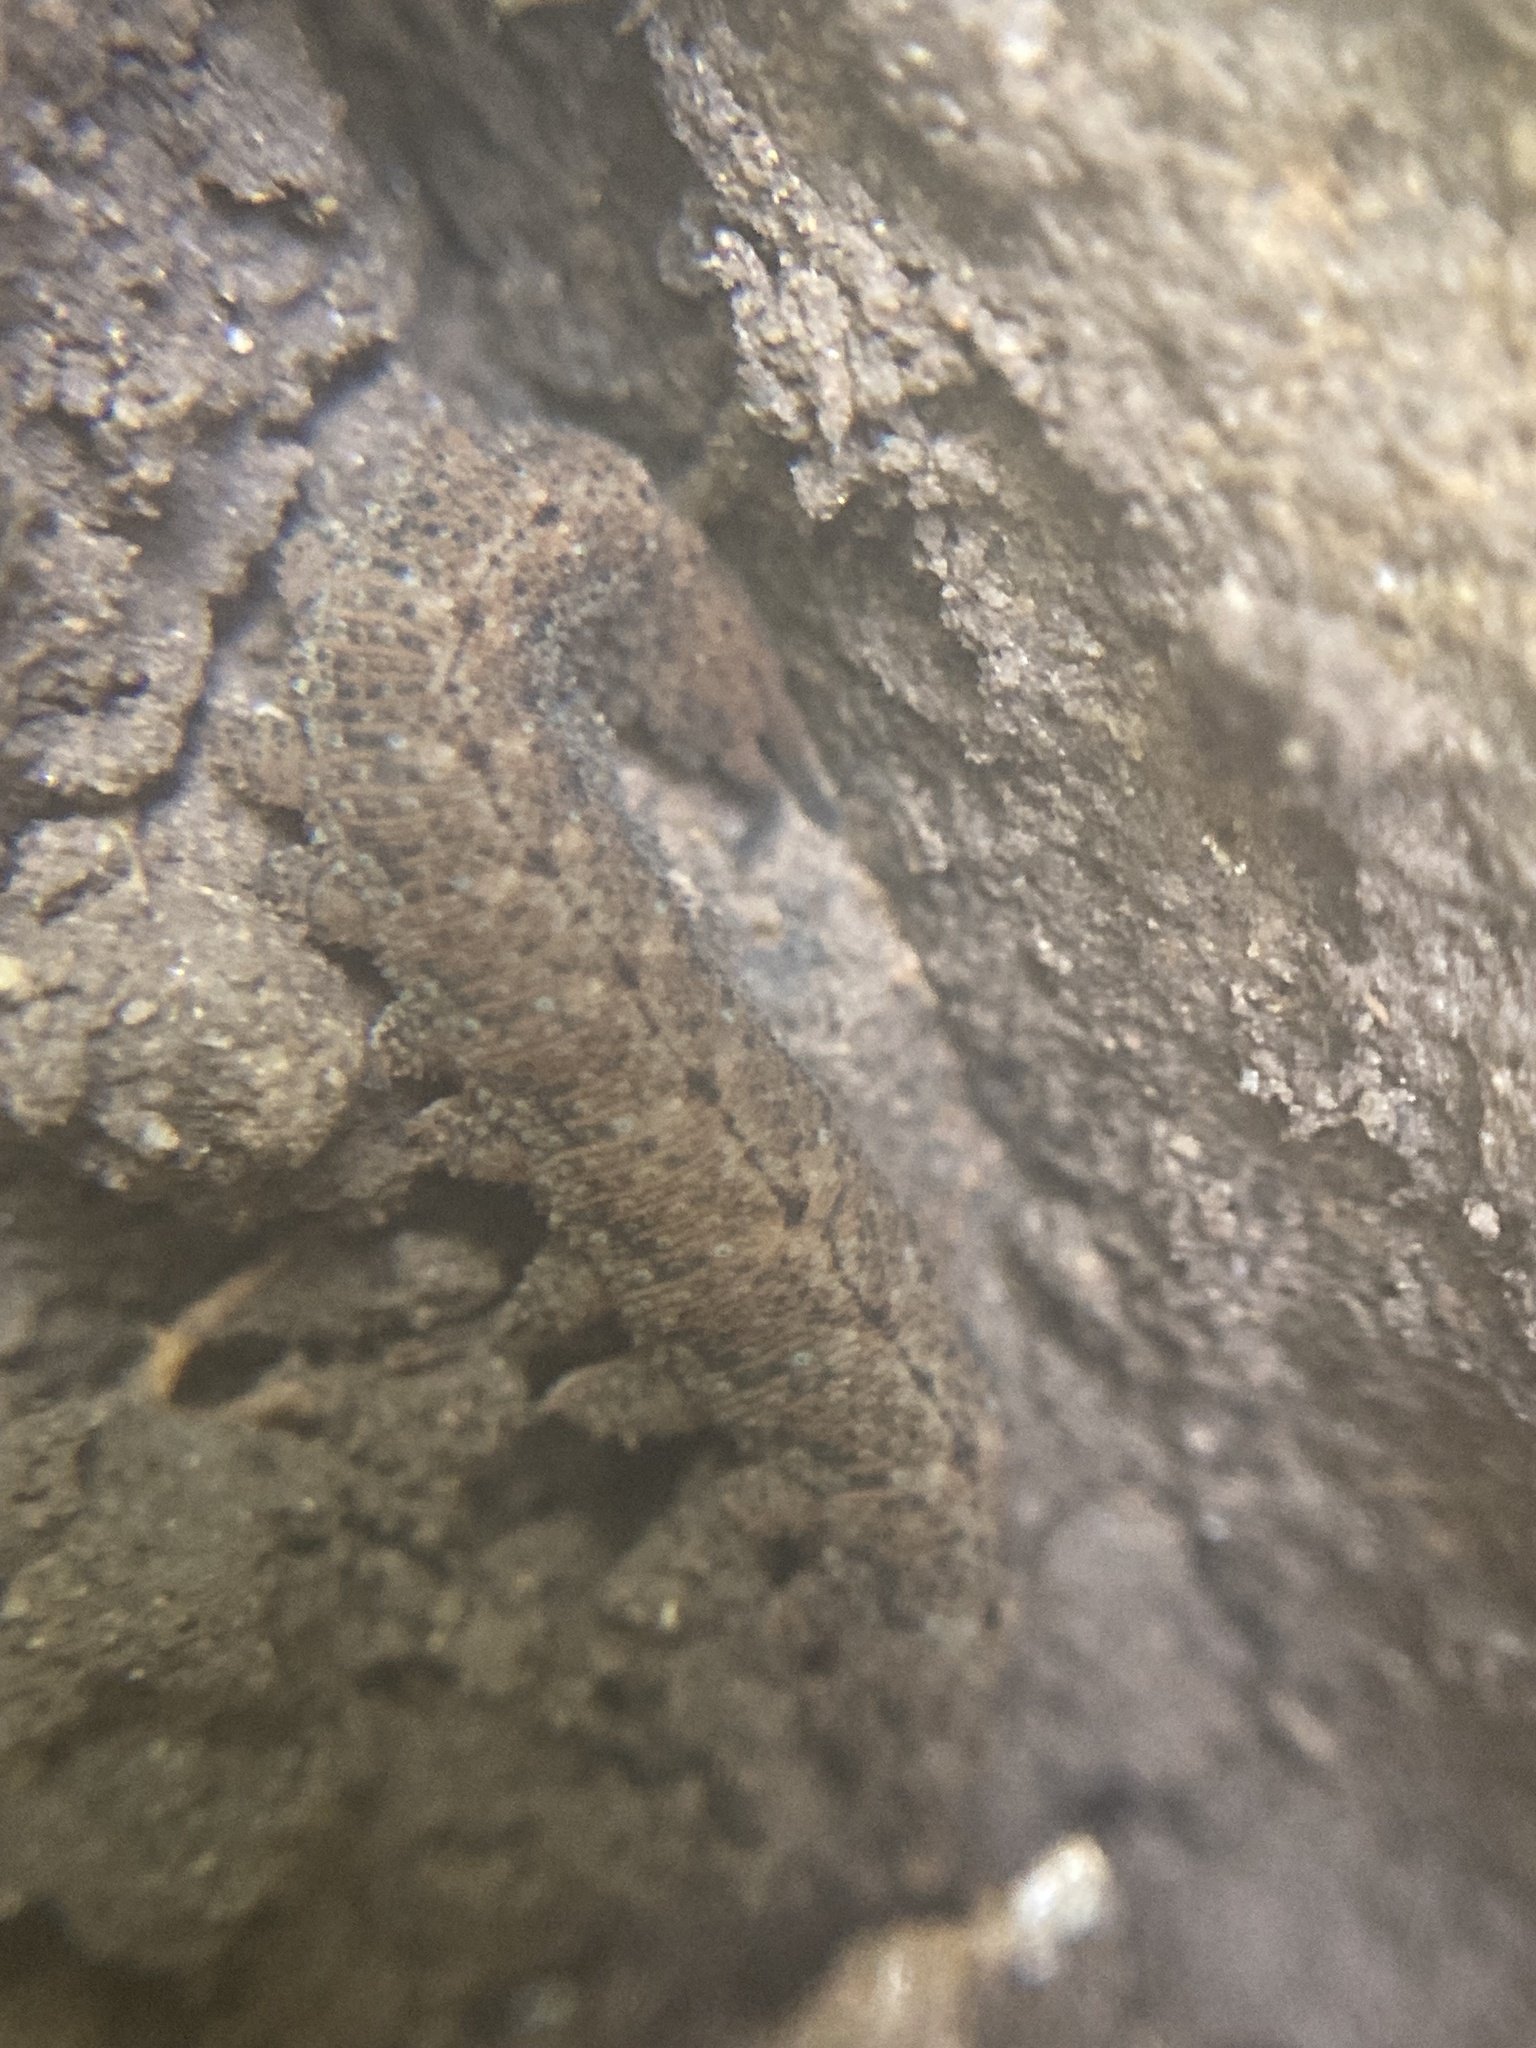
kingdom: Animalia
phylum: Onychophora
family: Peripatopsidae
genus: Anoplokaros
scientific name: Anoplokaros keerensis
